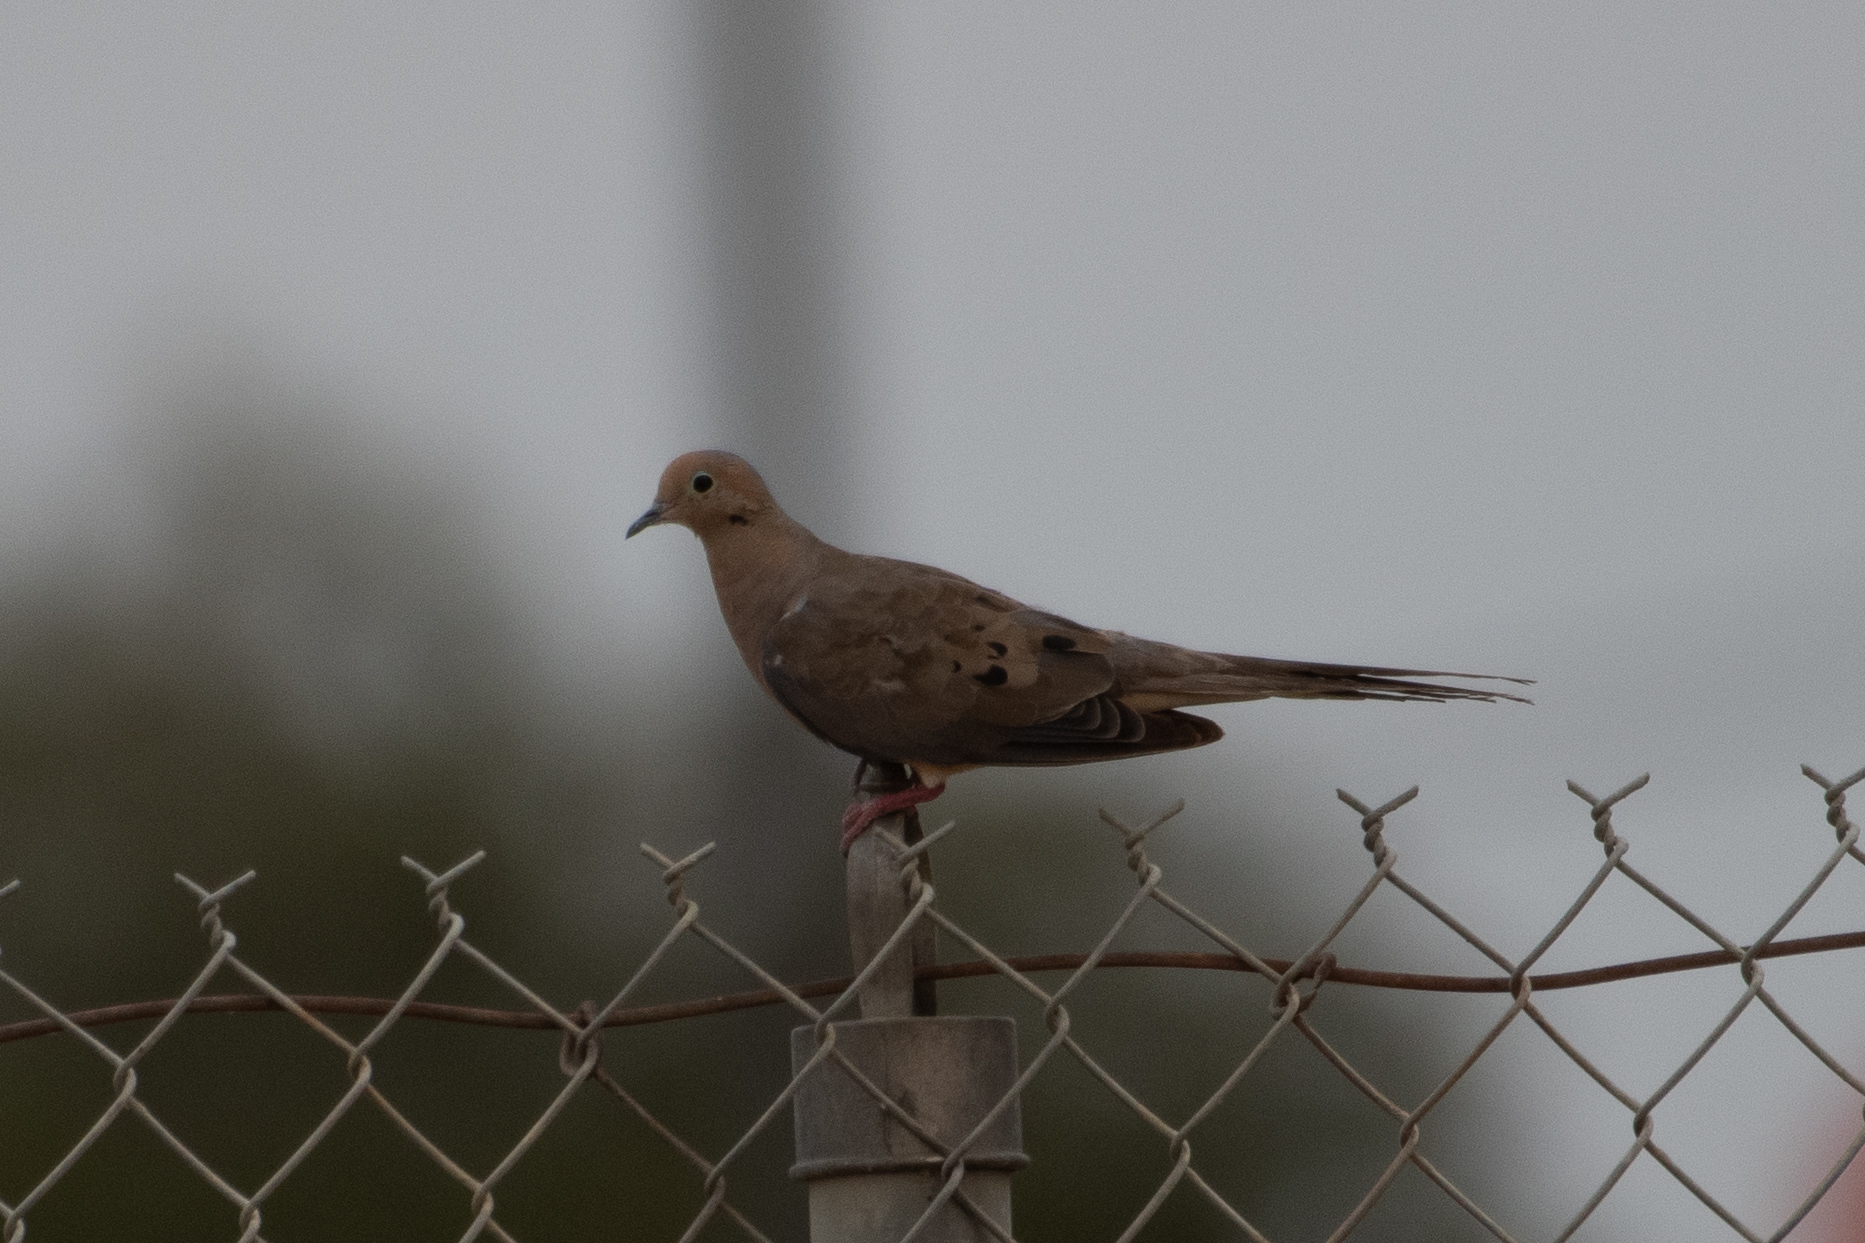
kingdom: Animalia
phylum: Chordata
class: Aves
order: Columbiformes
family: Columbidae
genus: Zenaida
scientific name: Zenaida macroura
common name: Mourning dove
